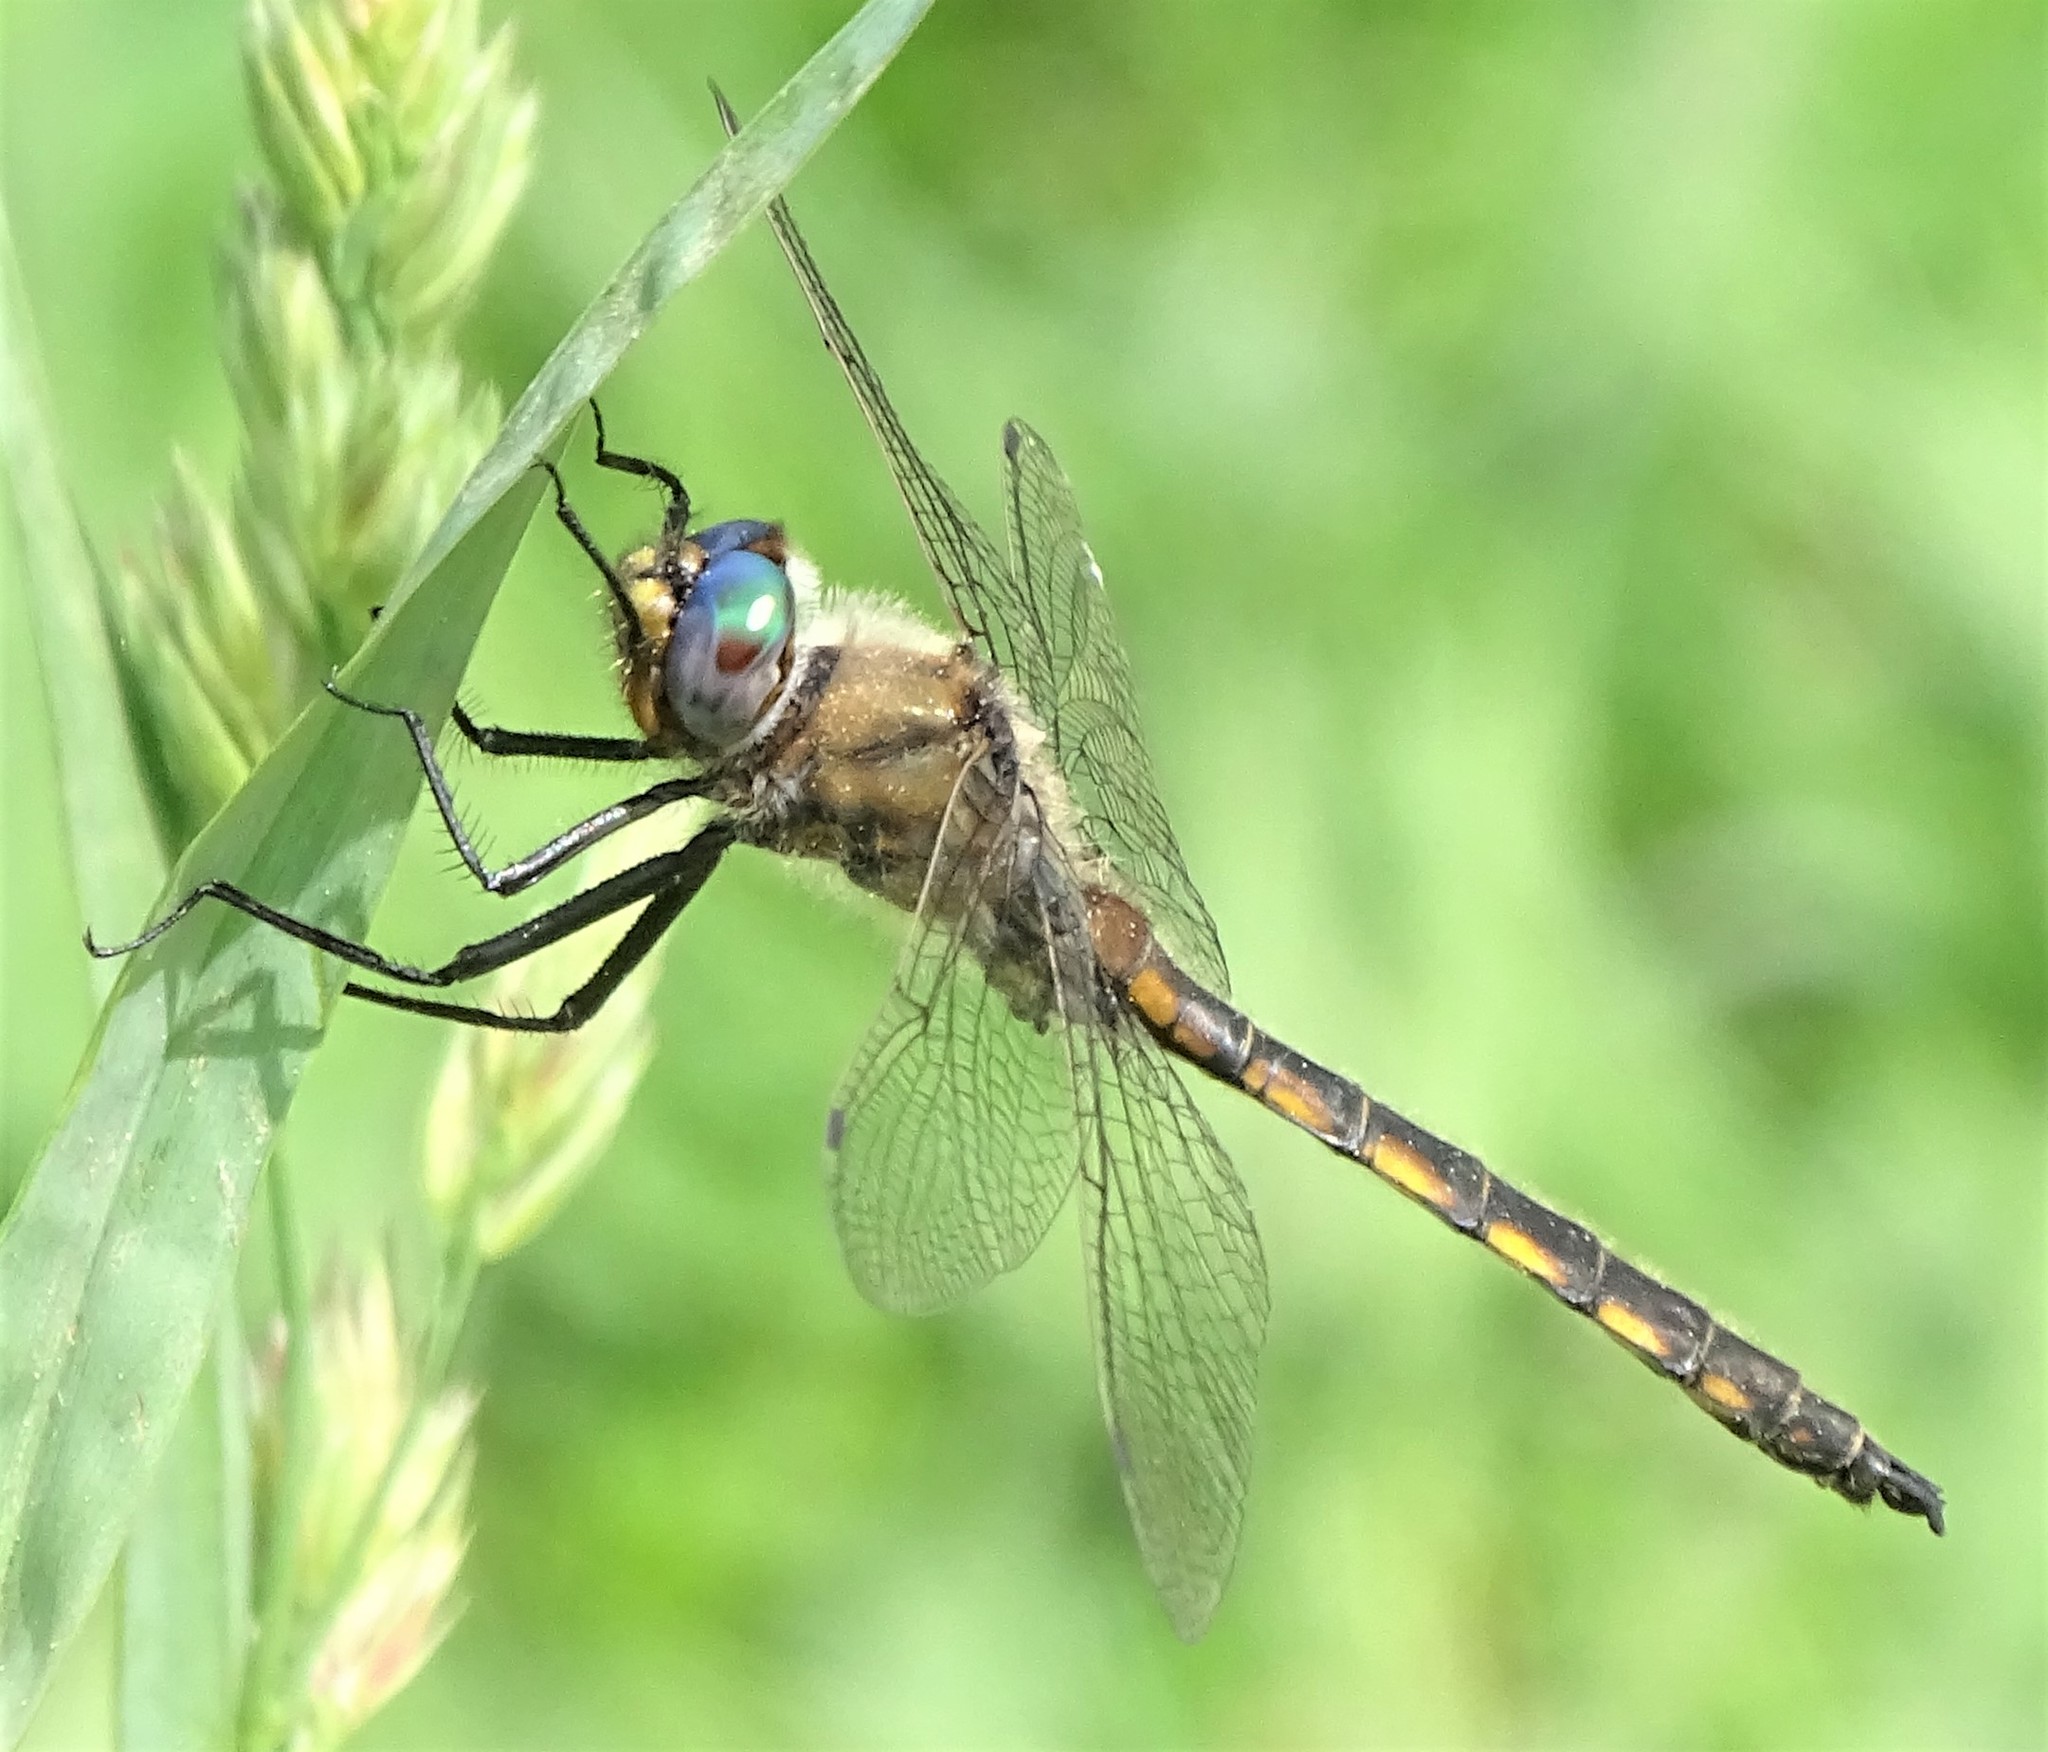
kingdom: Animalia
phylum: Arthropoda
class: Insecta
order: Odonata
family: Corduliidae
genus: Epitheca
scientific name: Epitheca canis
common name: Beaverpond baskettail
